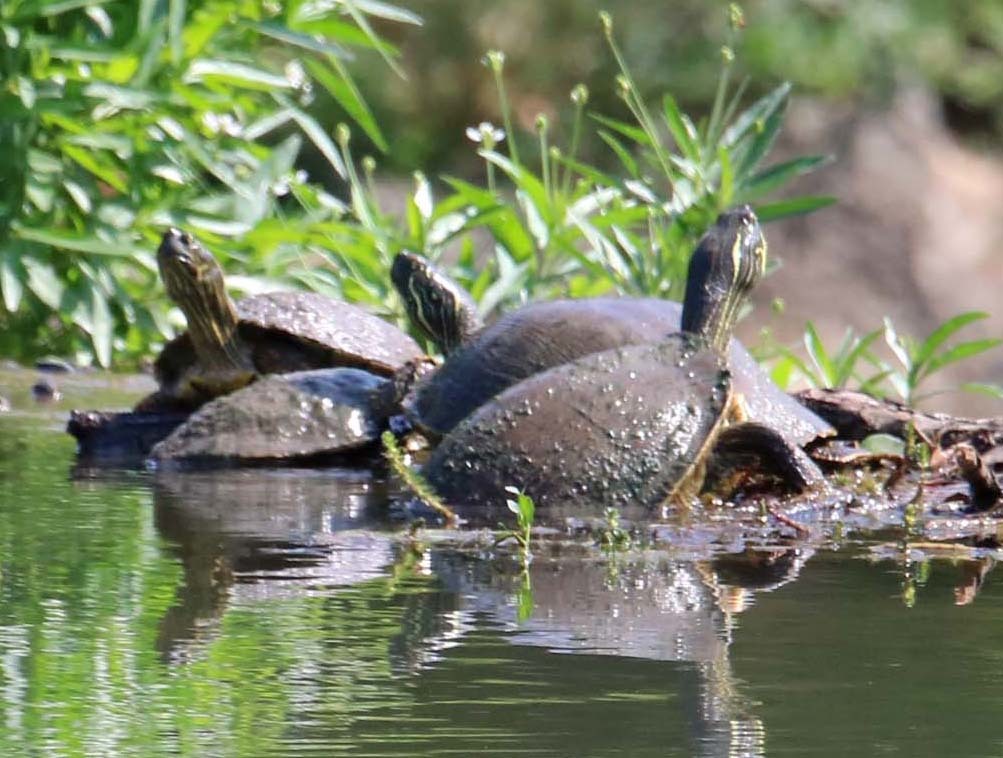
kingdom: Animalia
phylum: Chordata
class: Testudines
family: Emydidae
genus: Pseudemys
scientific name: Pseudemys texana
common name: Texas river cooter
